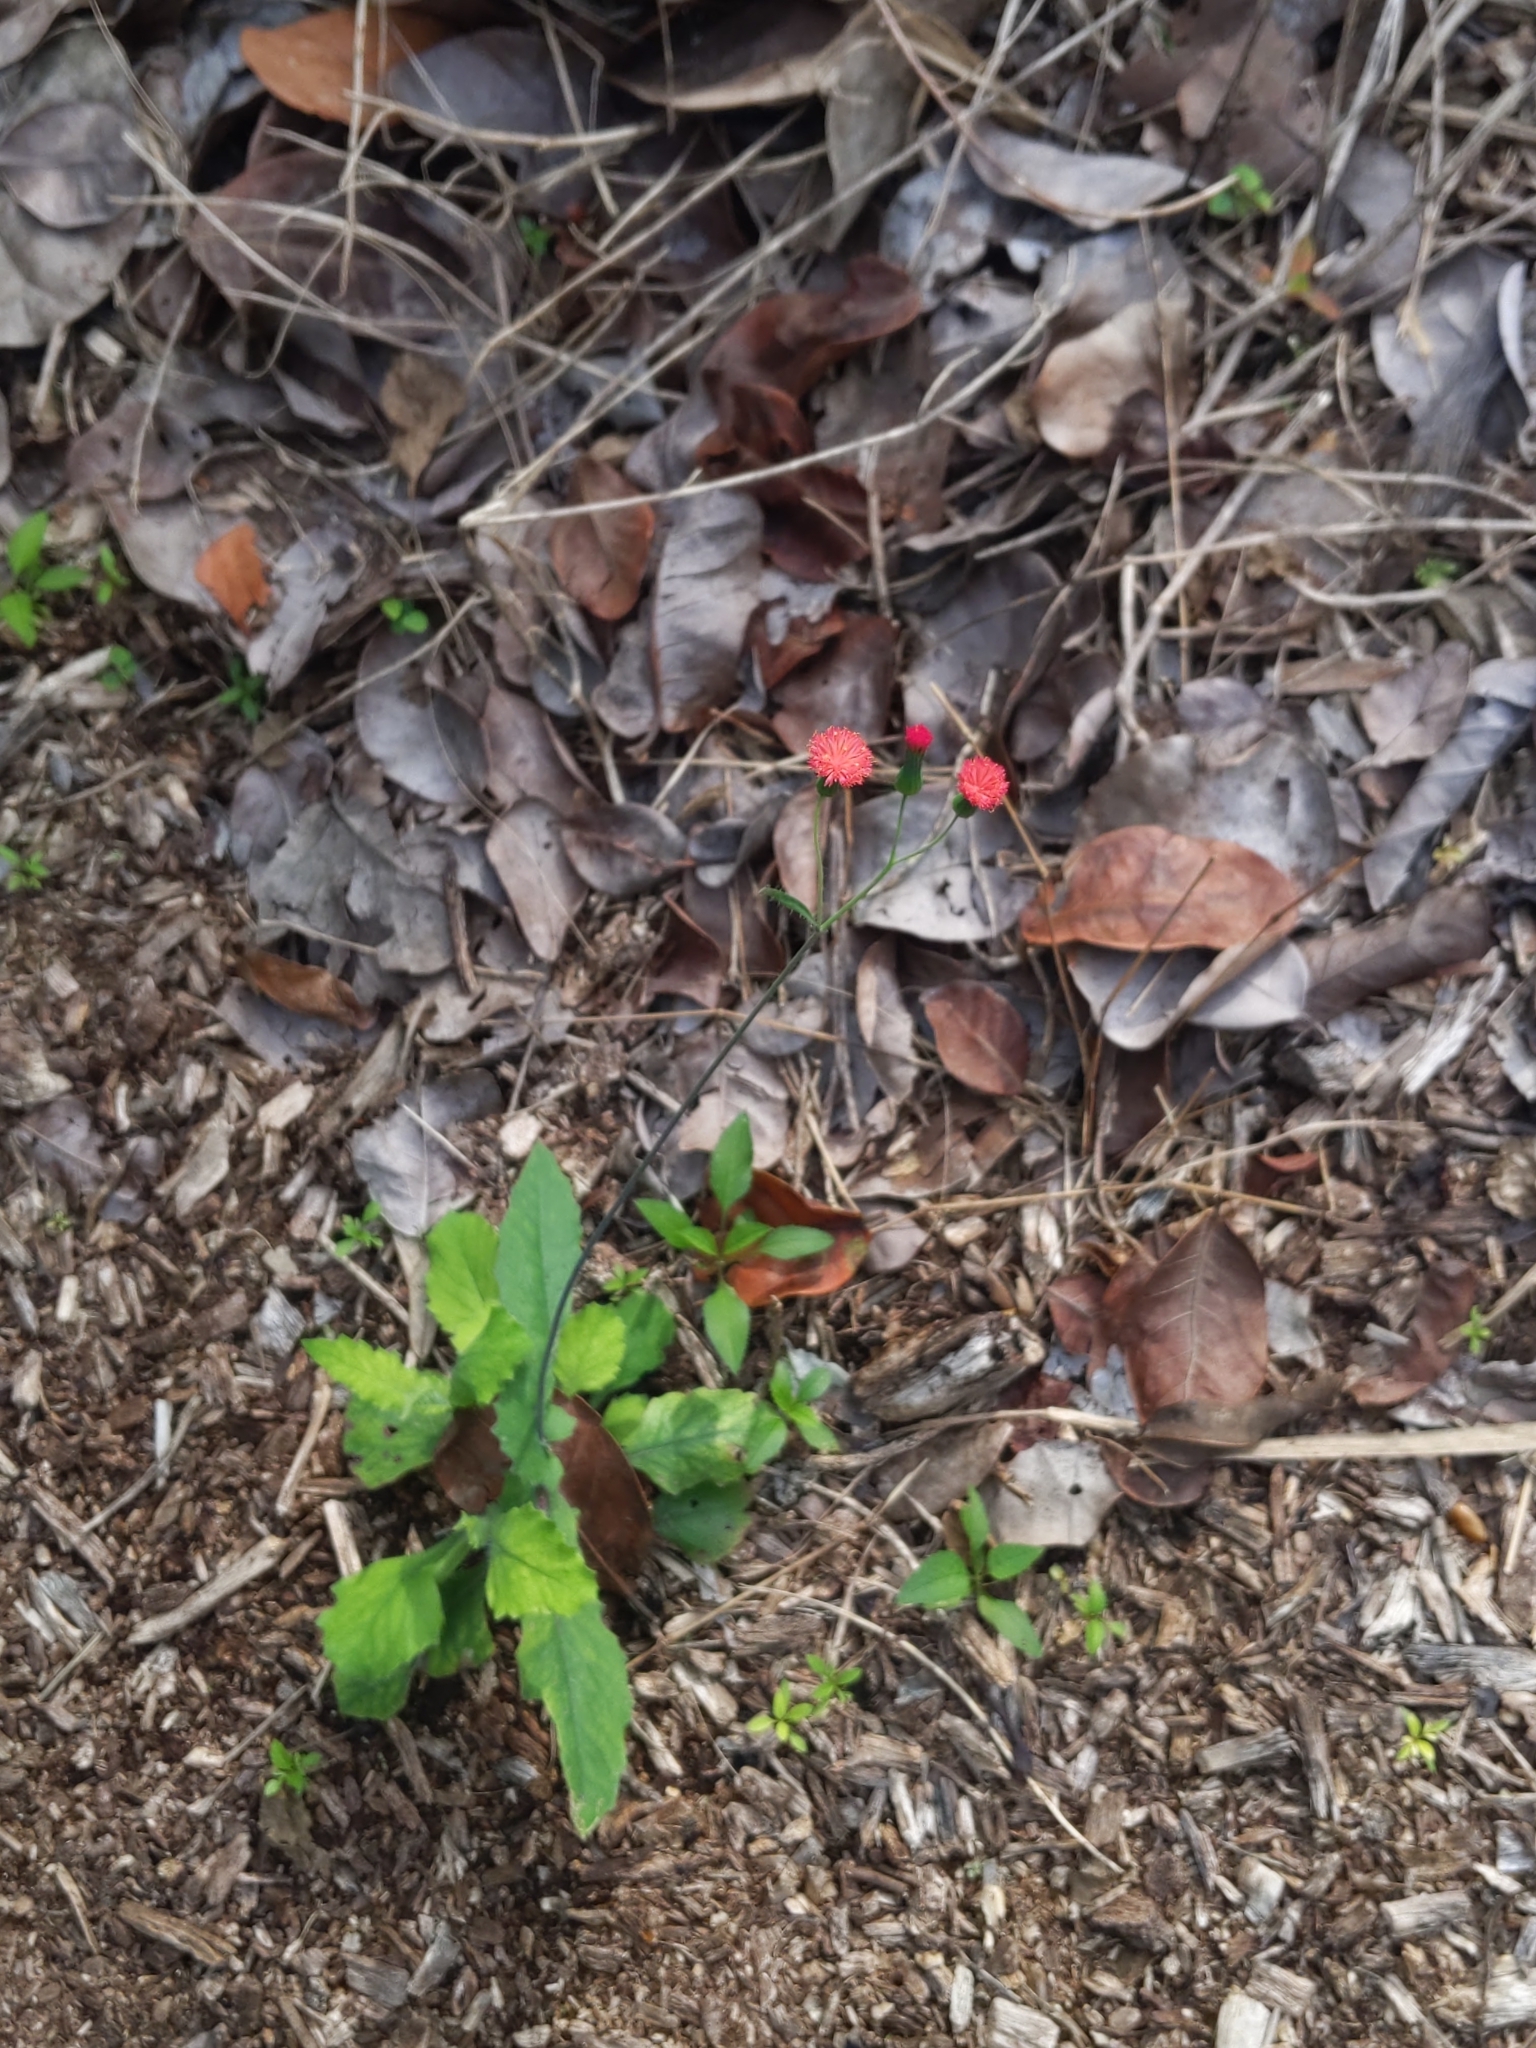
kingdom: Plantae
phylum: Tracheophyta
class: Magnoliopsida
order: Asterales
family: Asteraceae
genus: Emilia
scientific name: Emilia fosbergii
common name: Florida tasselflower
